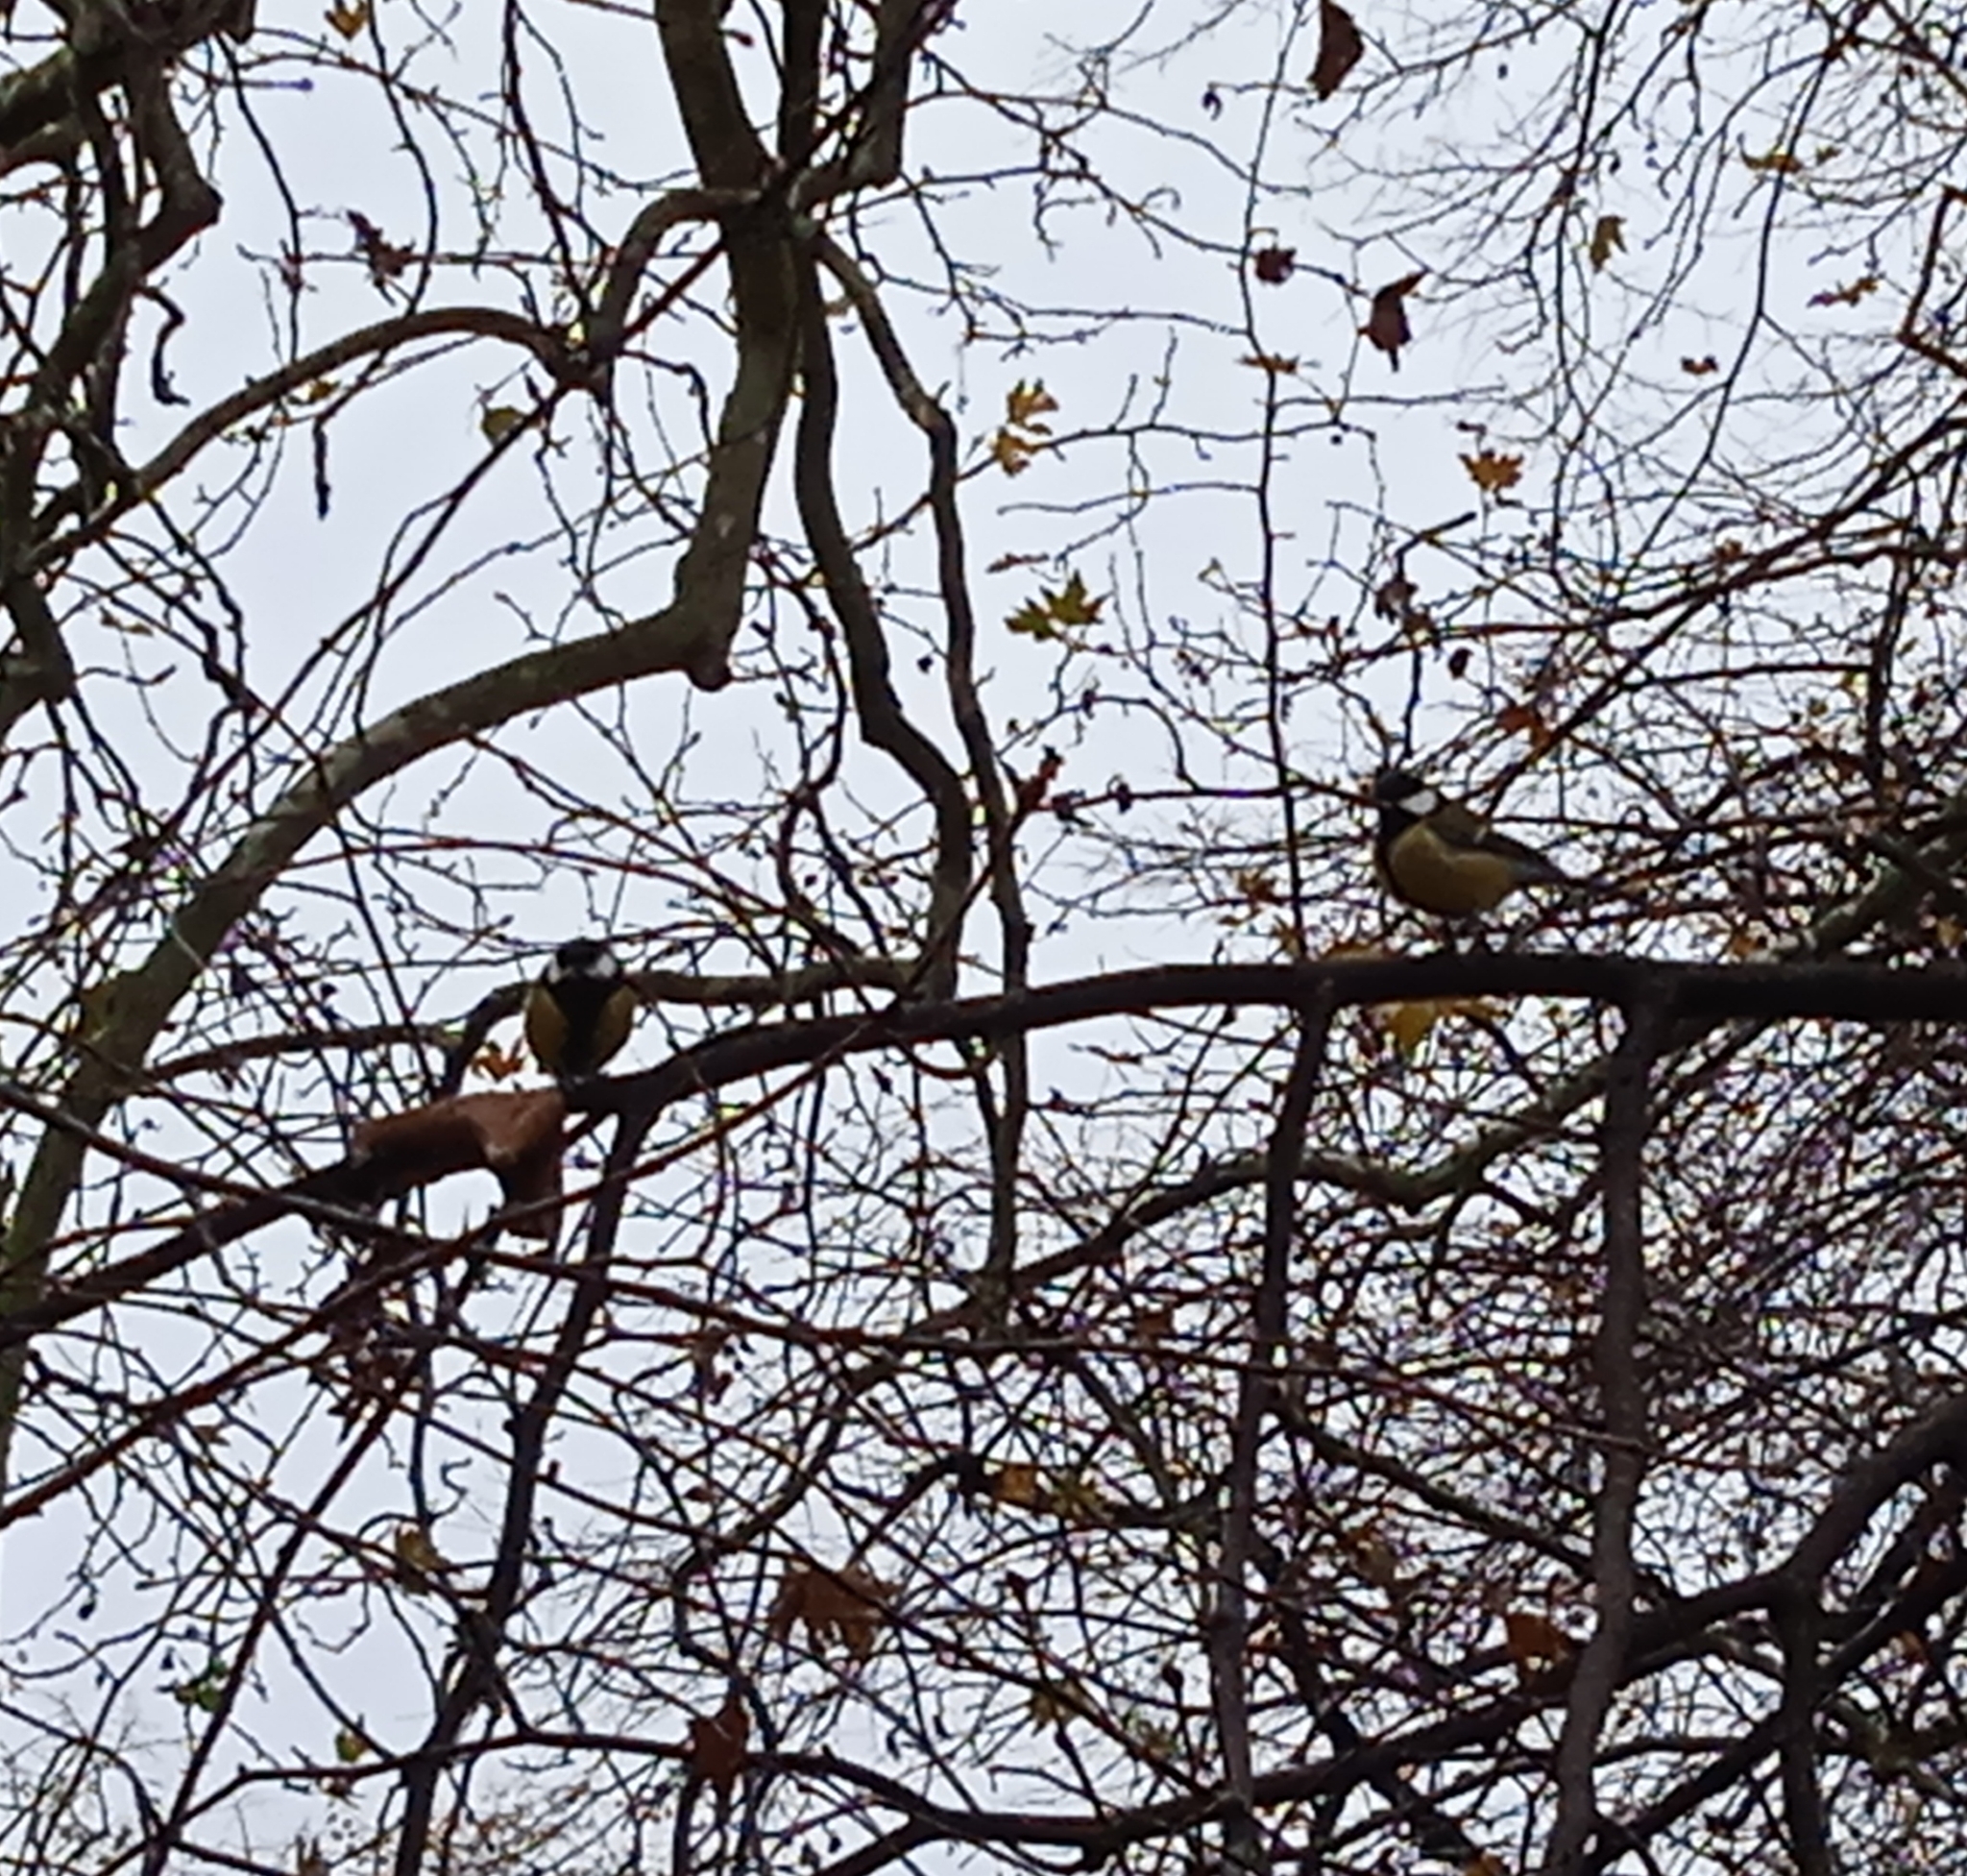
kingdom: Animalia
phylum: Chordata
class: Aves
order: Passeriformes
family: Paridae
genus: Parus
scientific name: Parus major
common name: Great tit
